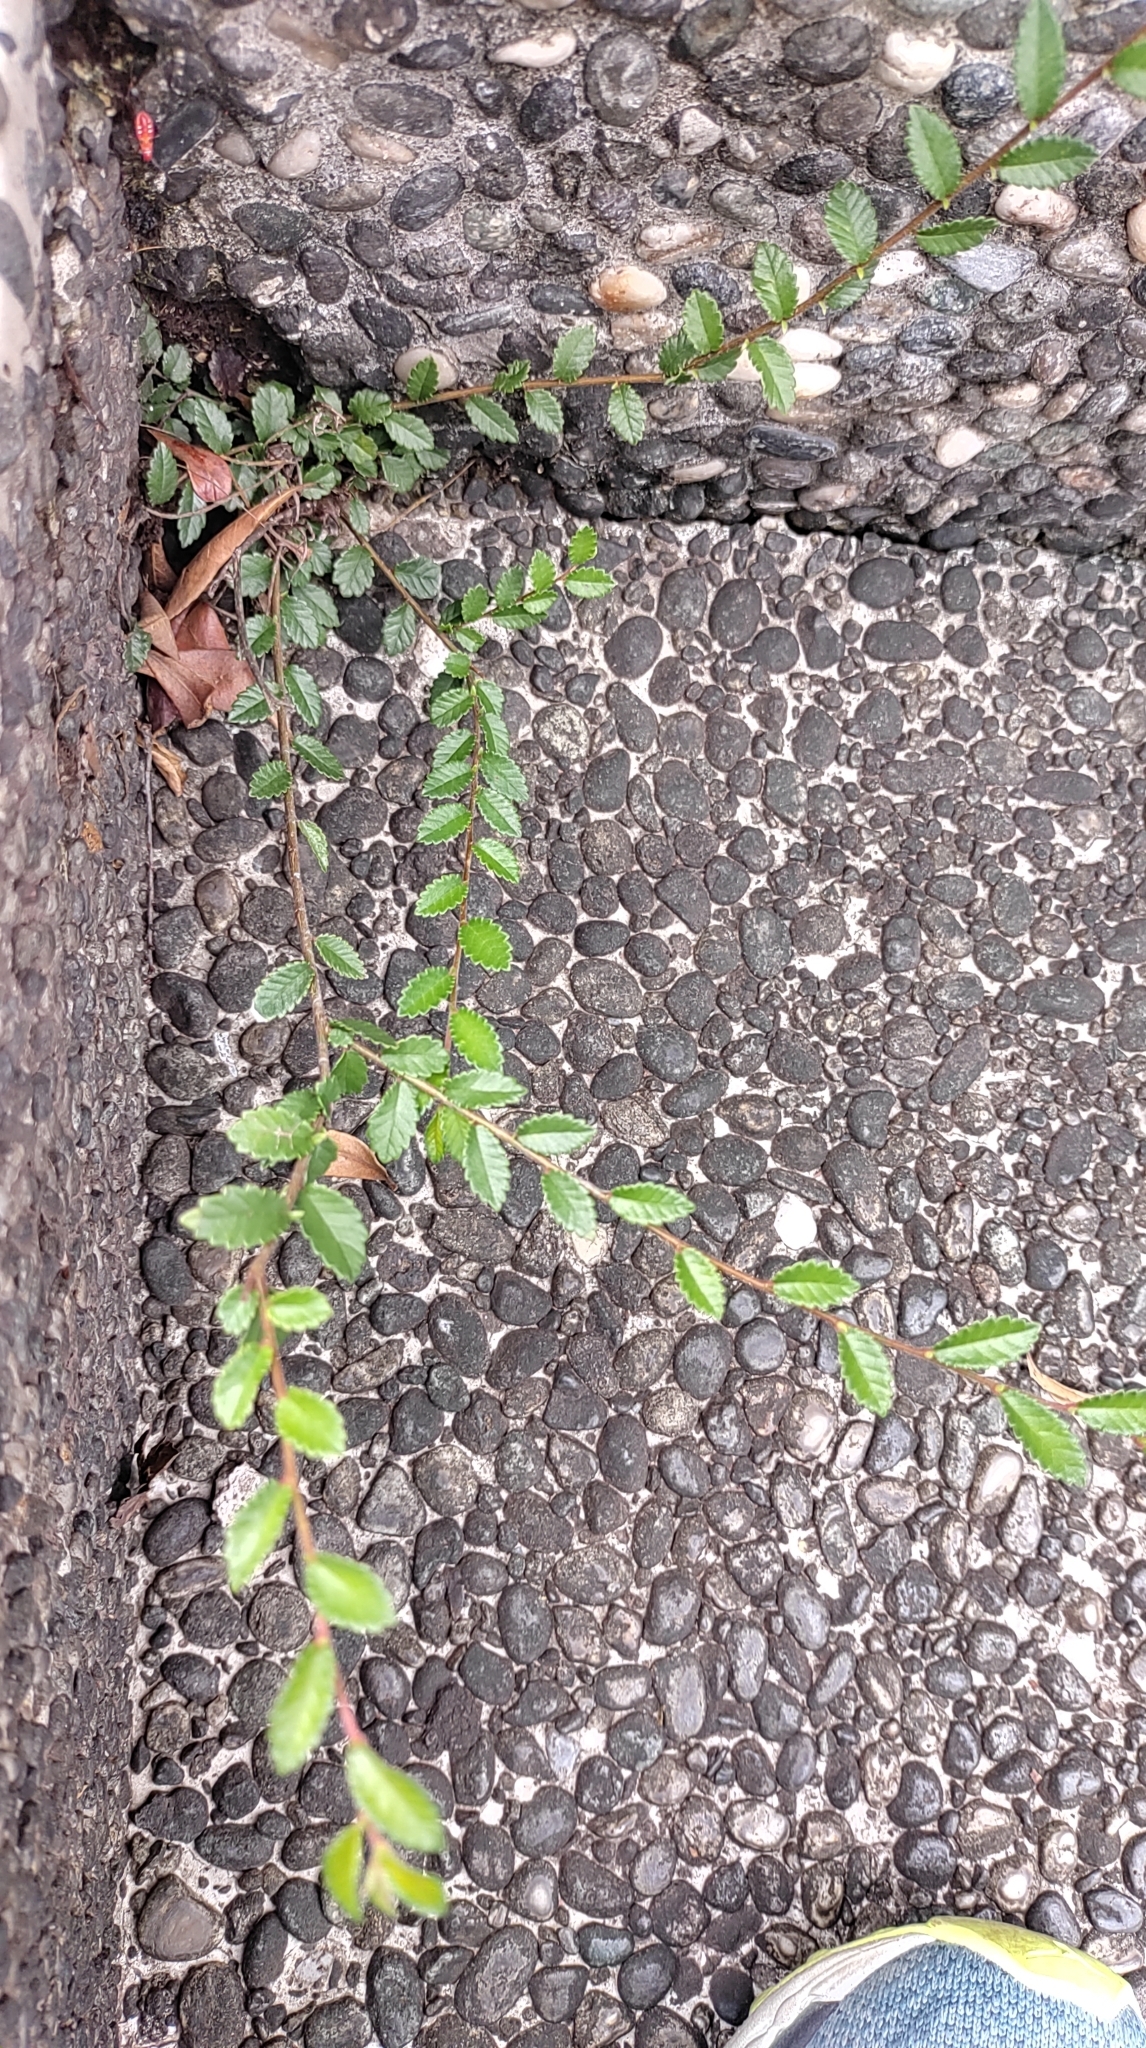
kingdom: Plantae
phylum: Tracheophyta
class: Magnoliopsida
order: Rosales
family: Ulmaceae
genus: Ulmus
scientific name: Ulmus parvifolia
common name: Chinese elm
